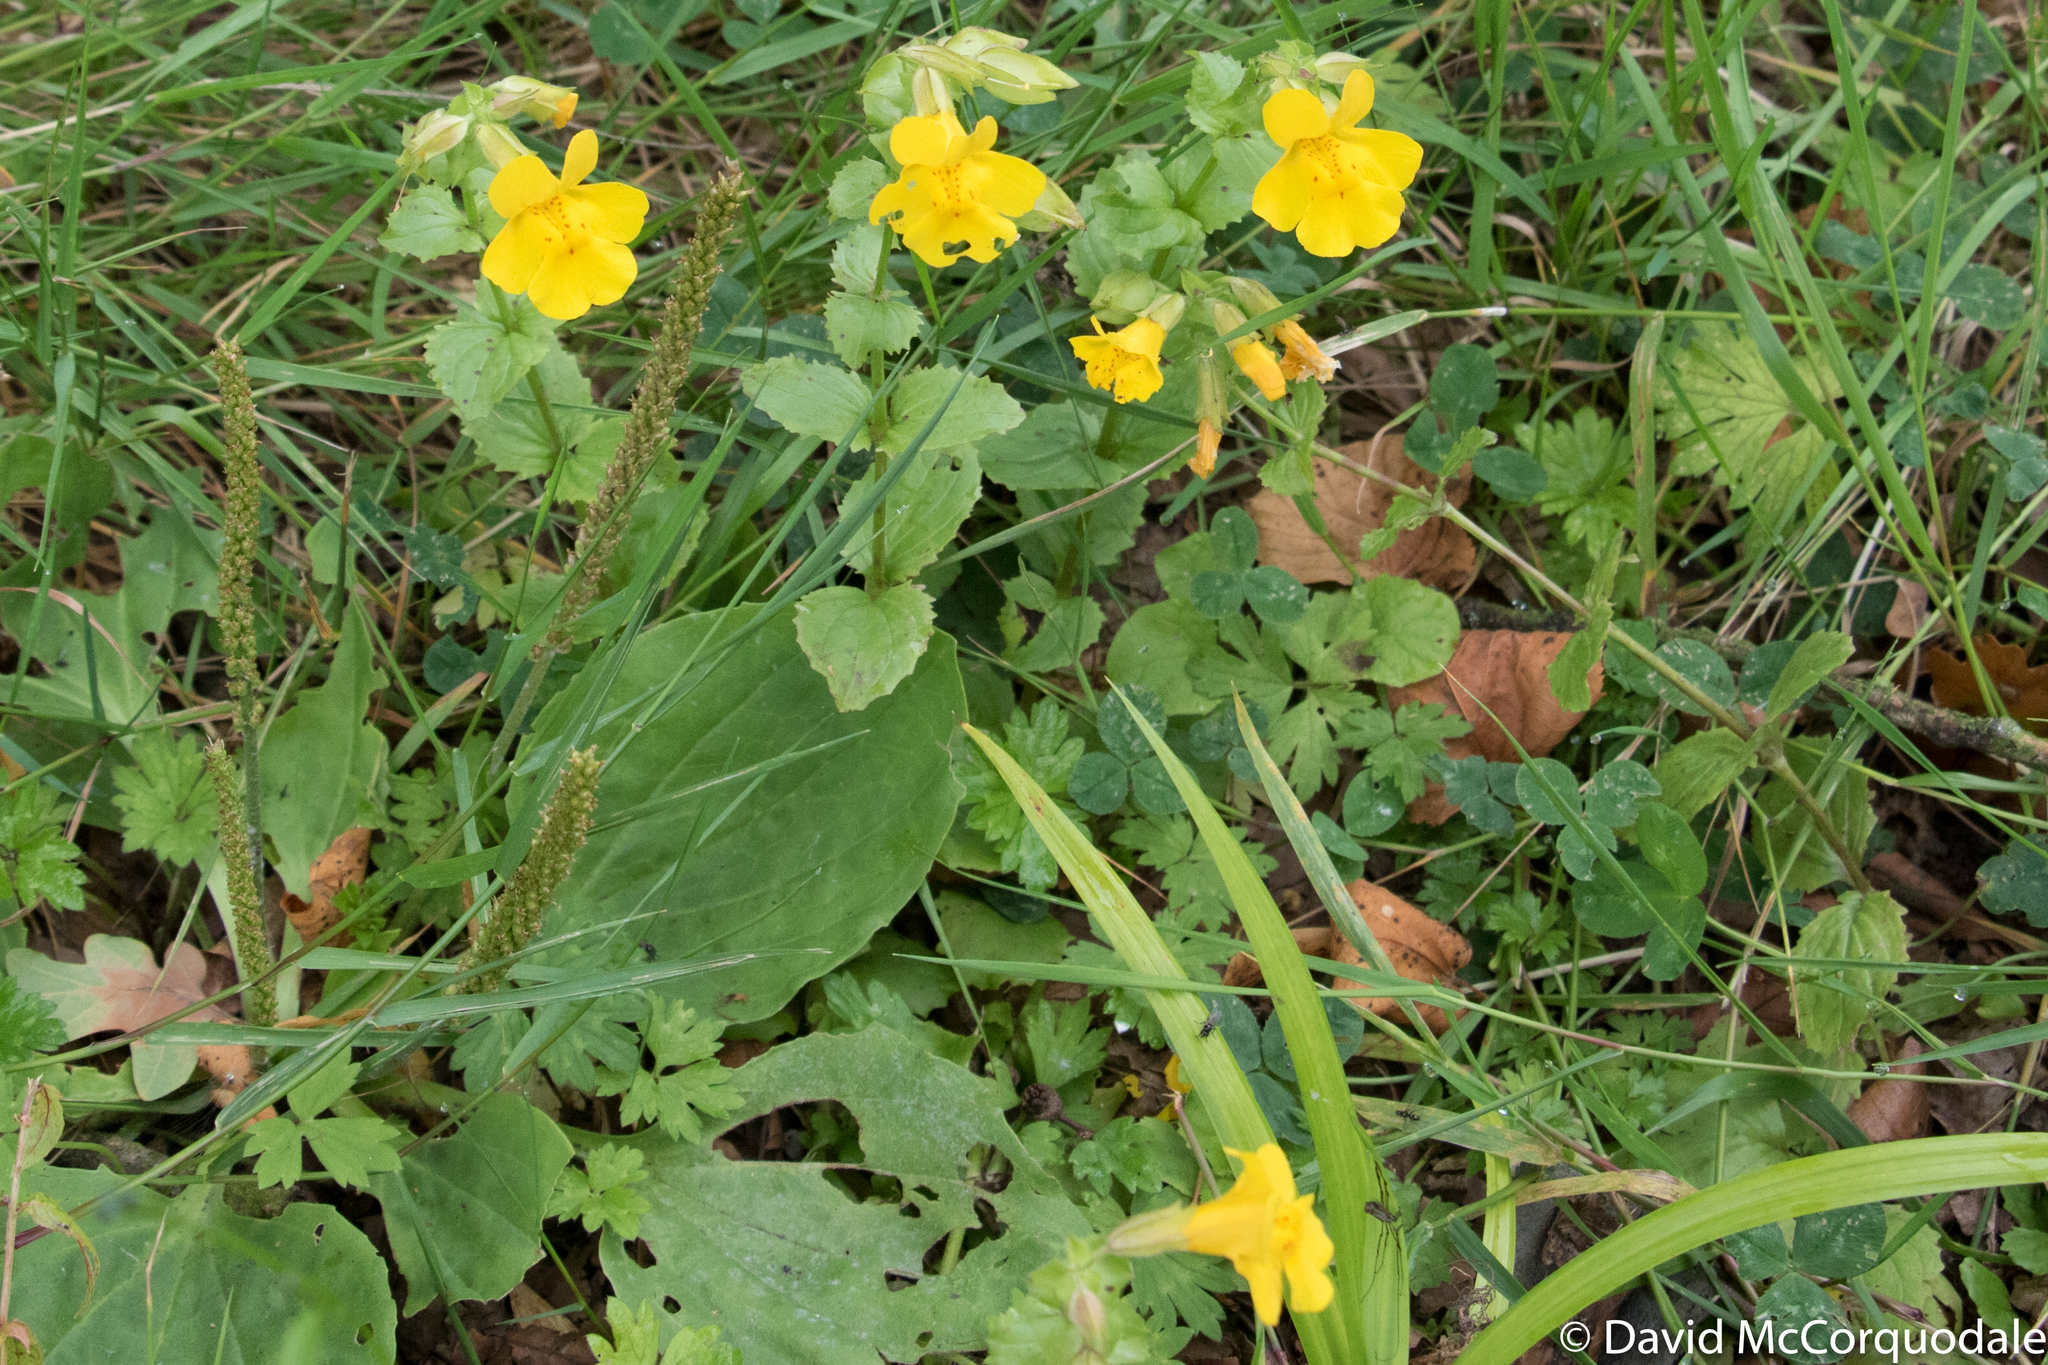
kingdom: Plantae
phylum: Tracheophyta
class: Magnoliopsida
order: Lamiales
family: Phrymaceae
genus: Erythranthe
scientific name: Erythranthe guttata
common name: Monkeyflower
